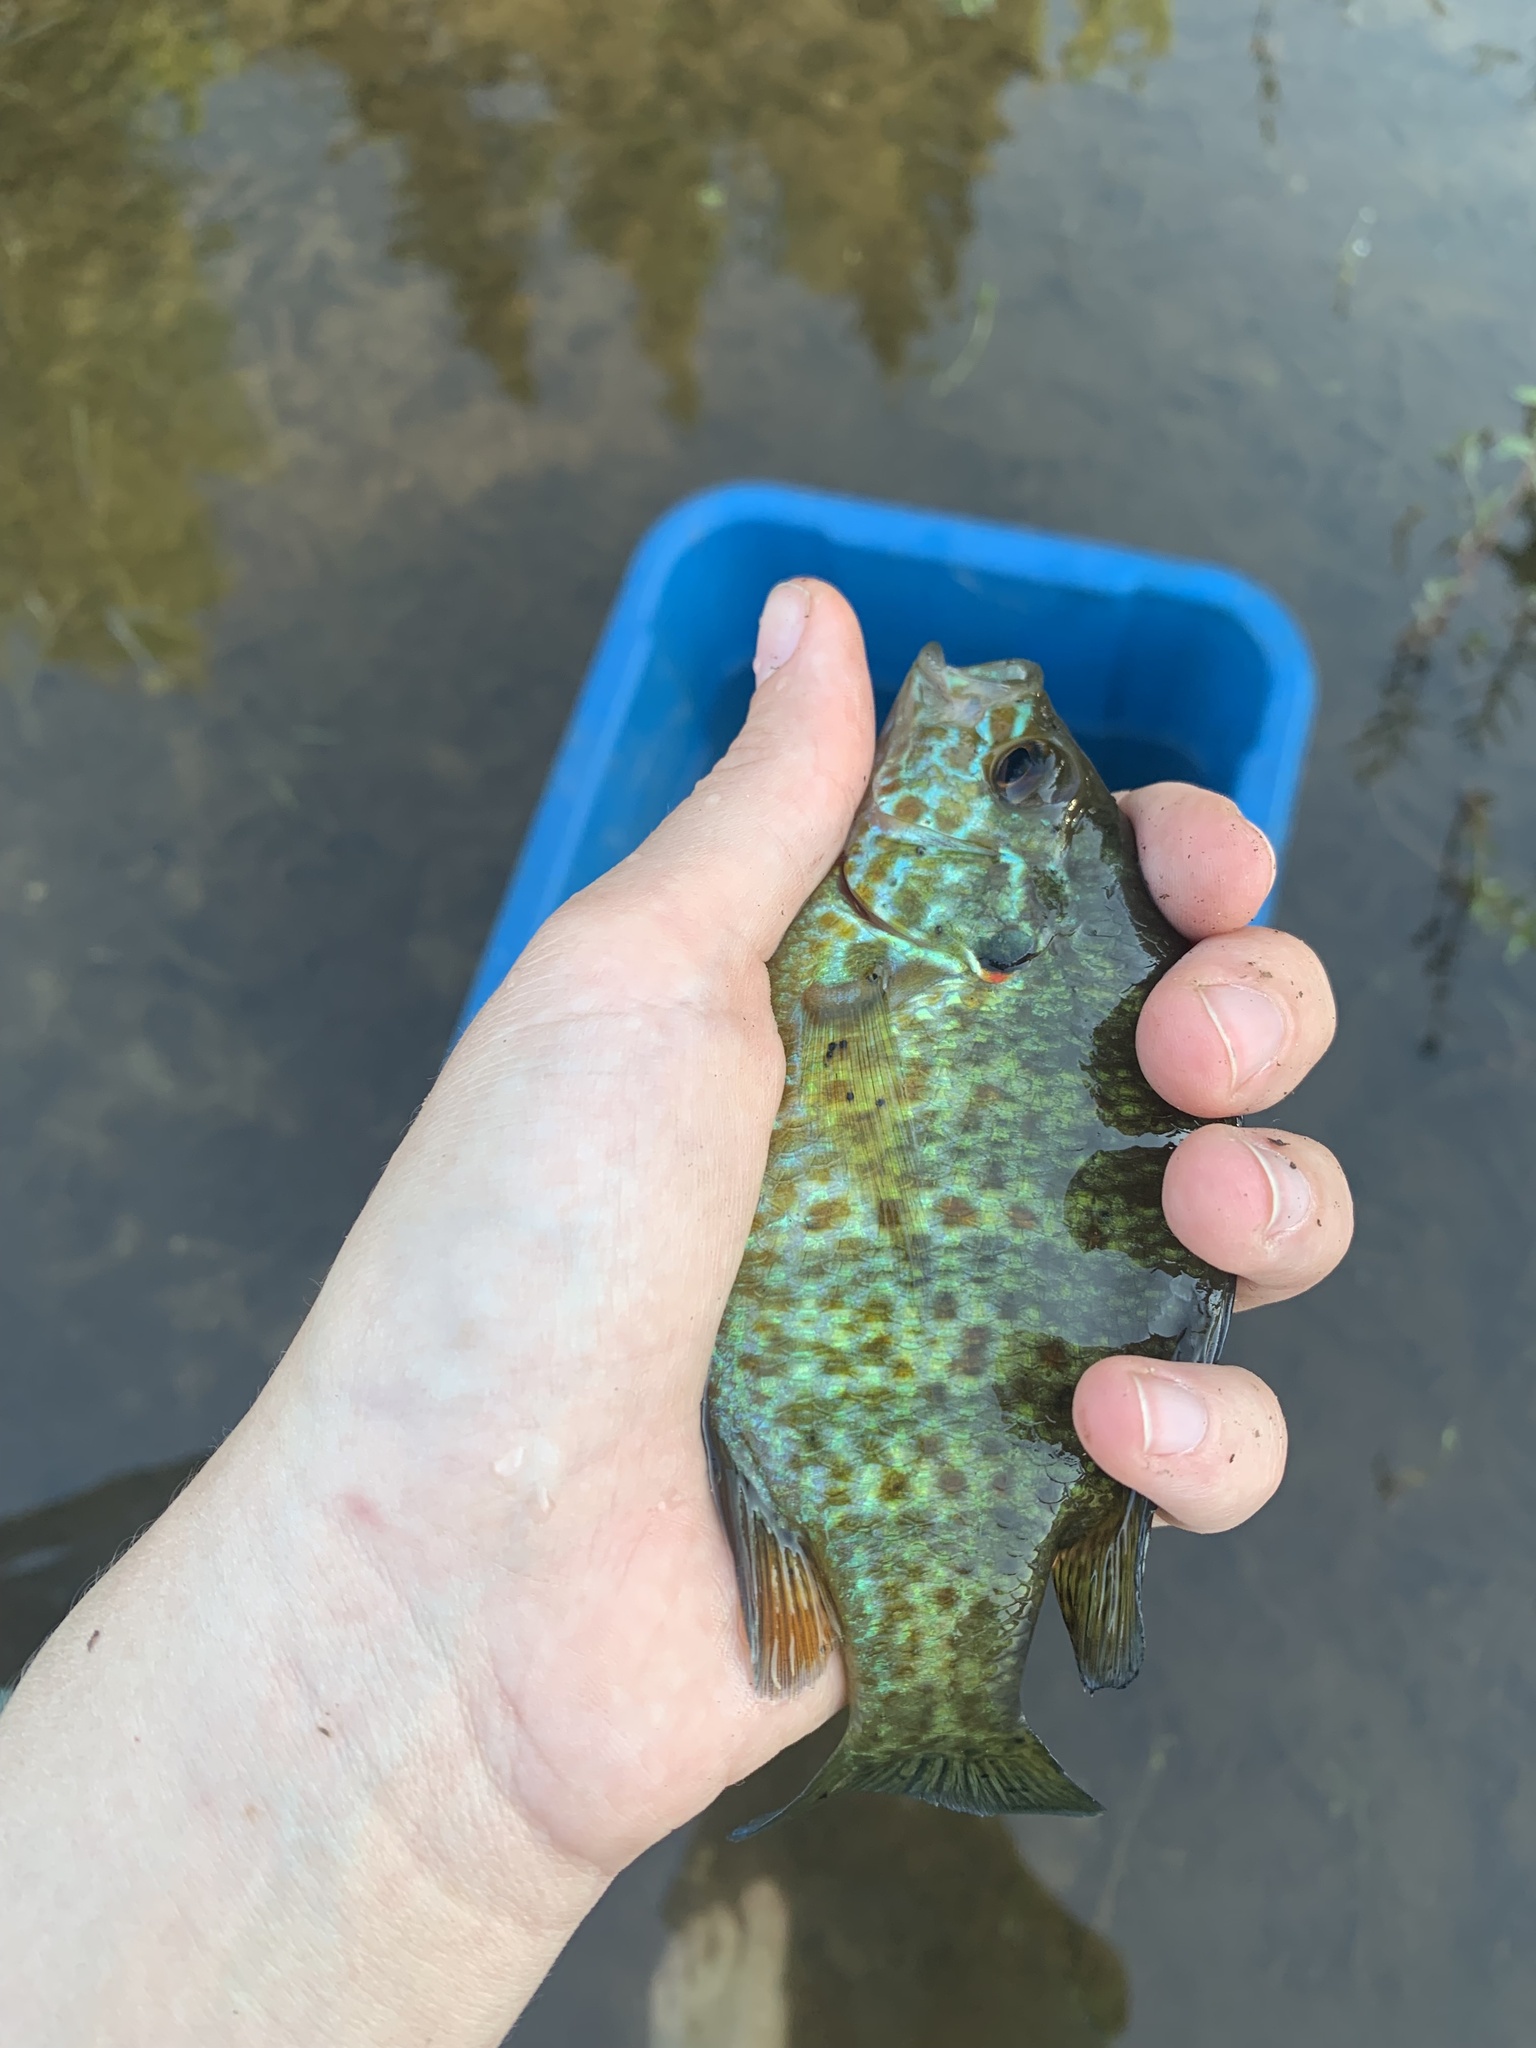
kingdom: Animalia
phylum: Chordata
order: Perciformes
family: Centrarchidae
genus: Lepomis
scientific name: Lepomis gibbosus
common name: Pumpkinseed
